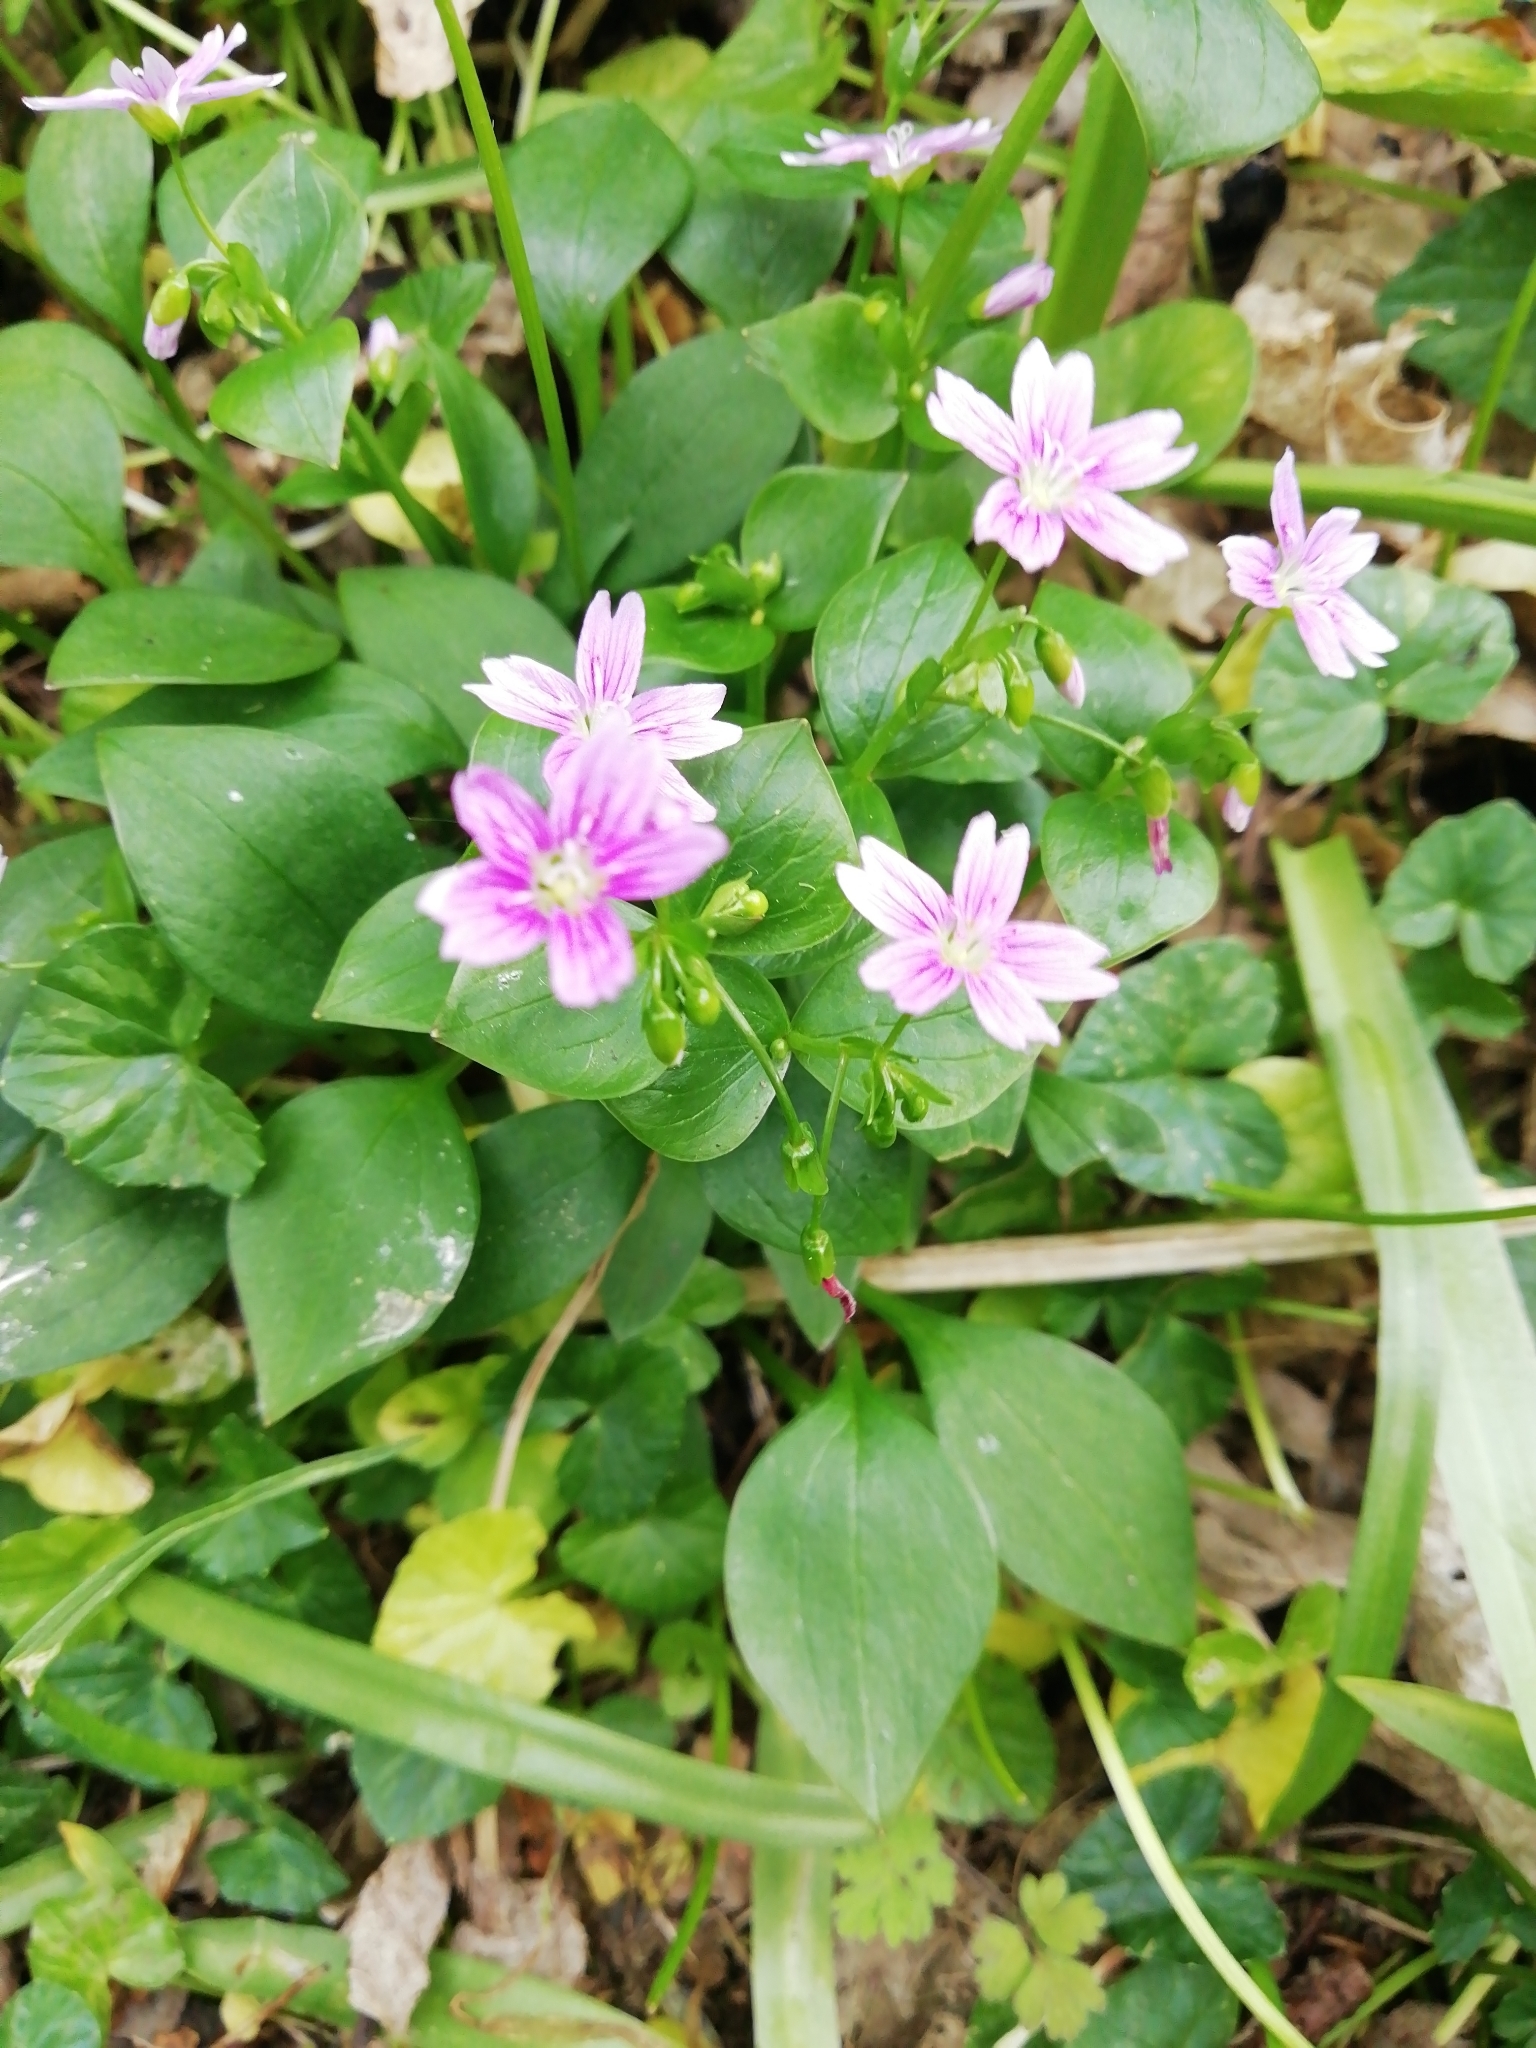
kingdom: Plantae
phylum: Tracheophyta
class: Magnoliopsida
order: Caryophyllales
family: Montiaceae
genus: Claytonia
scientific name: Claytonia sibirica
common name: Pink purslane
